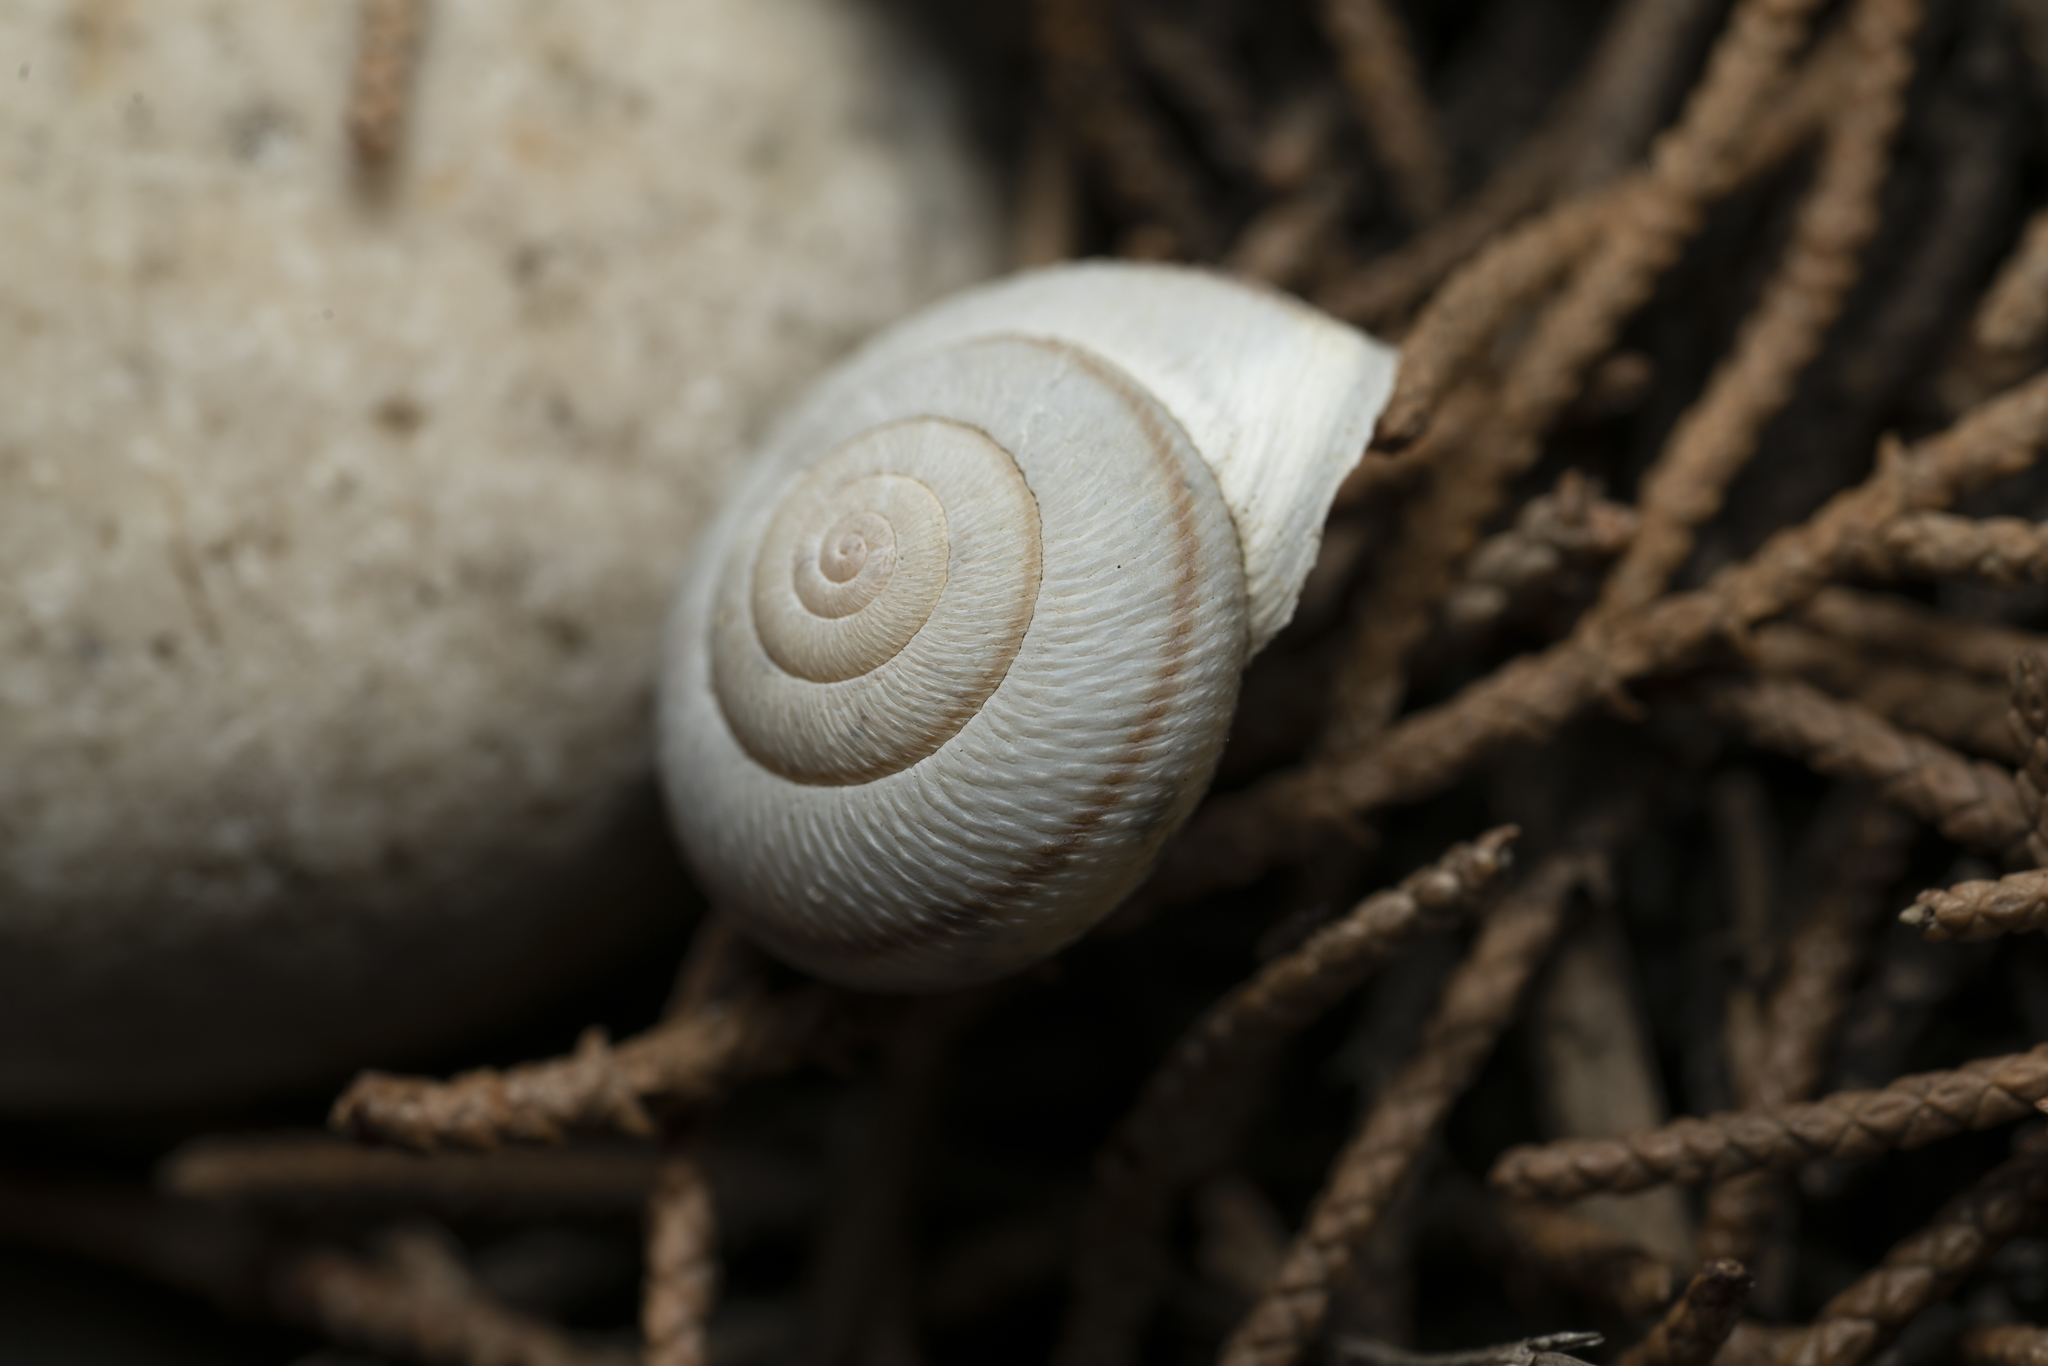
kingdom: Animalia
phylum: Mollusca
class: Gastropoda
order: Stylommatophora
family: Hygromiidae
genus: Metafruticicola
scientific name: Metafruticicola pellita
